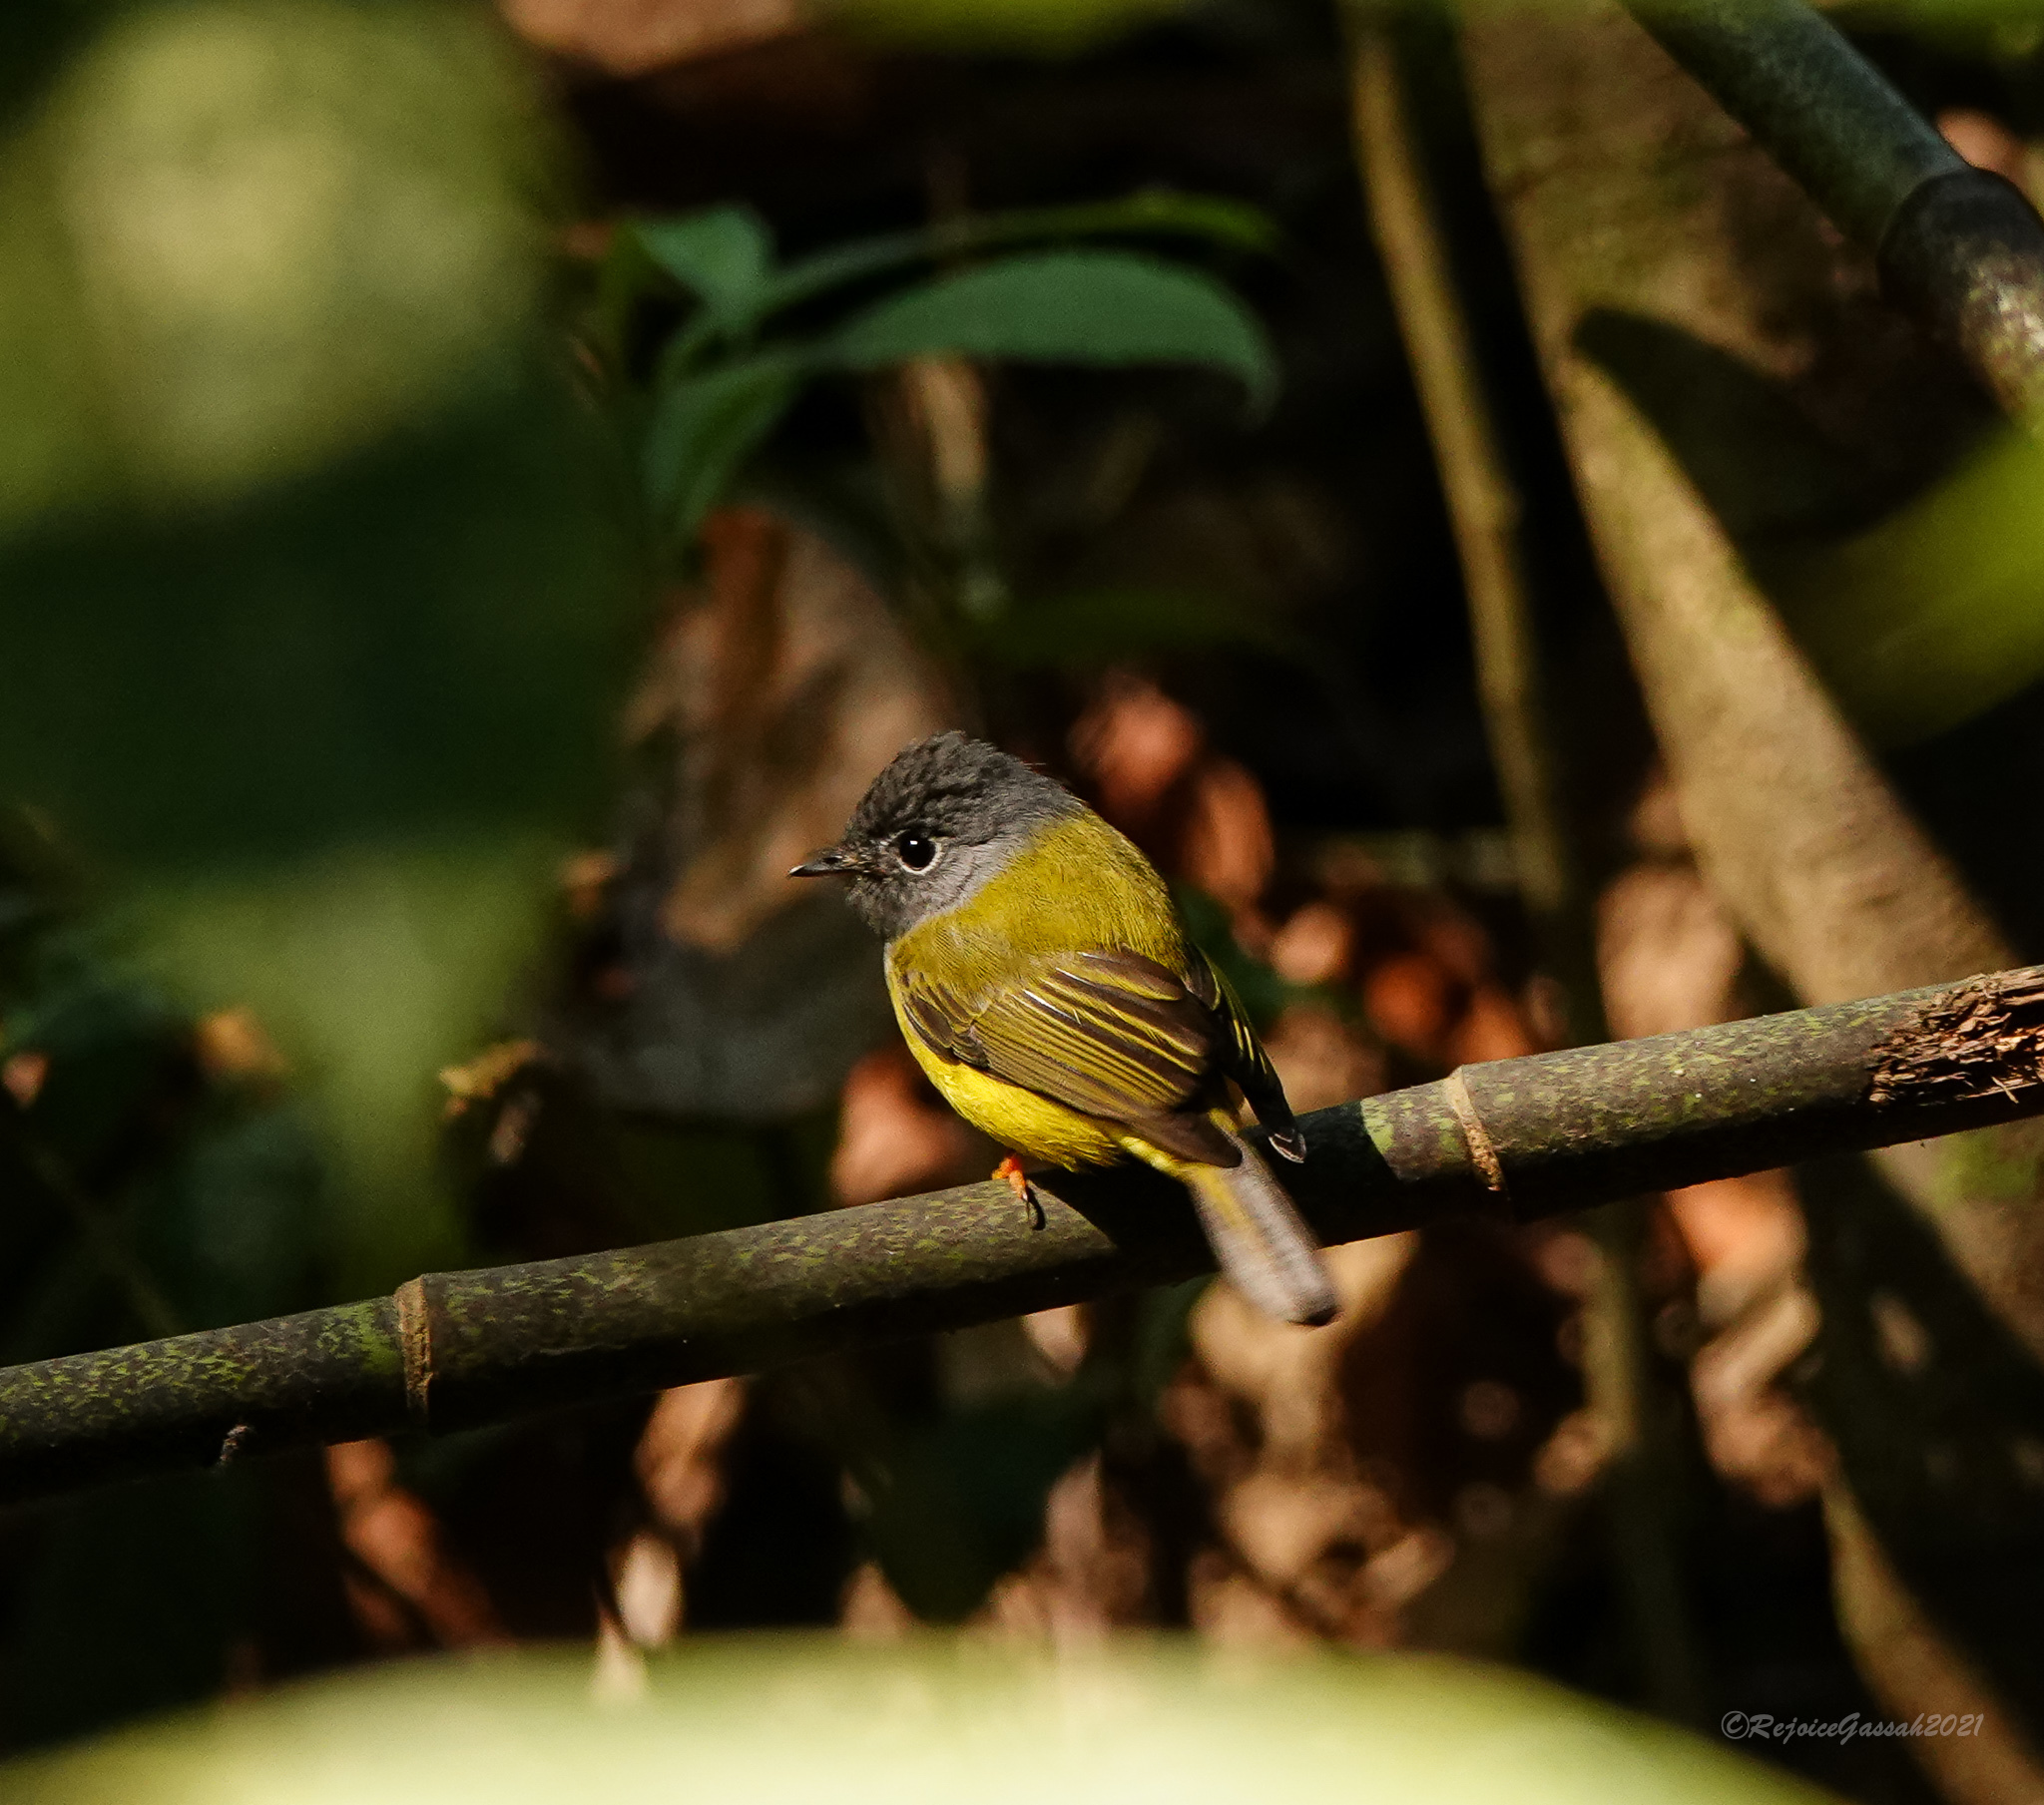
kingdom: Animalia
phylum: Chordata
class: Aves
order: Passeriformes
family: Stenostiridae
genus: Culicicapa
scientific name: Culicicapa ceylonensis
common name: Grey-headed canary-flycatcher
